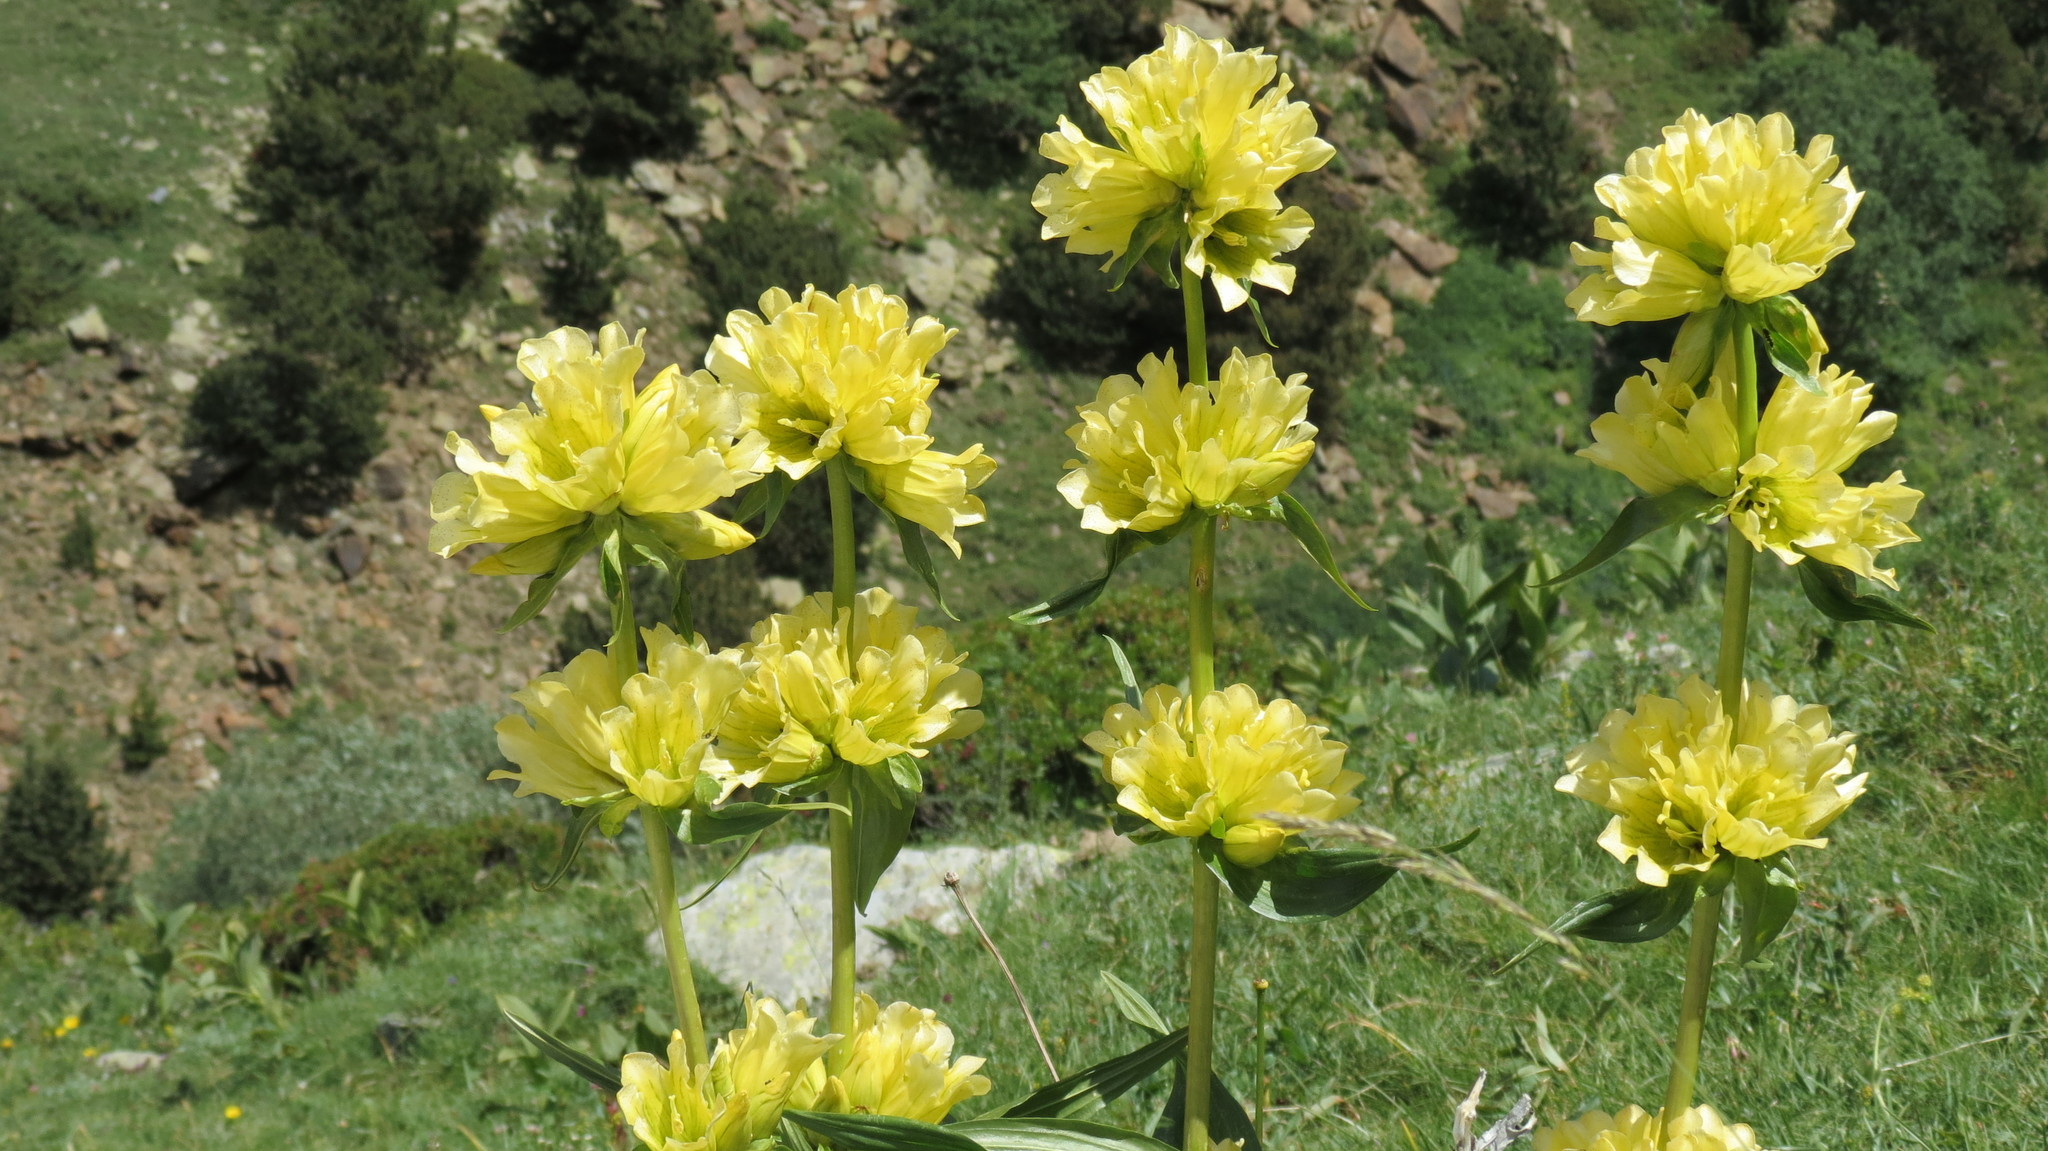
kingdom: Plantae
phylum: Tracheophyta
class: Magnoliopsida
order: Gentianales
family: Gentianaceae
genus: Gentiana
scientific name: Gentiana burseri
